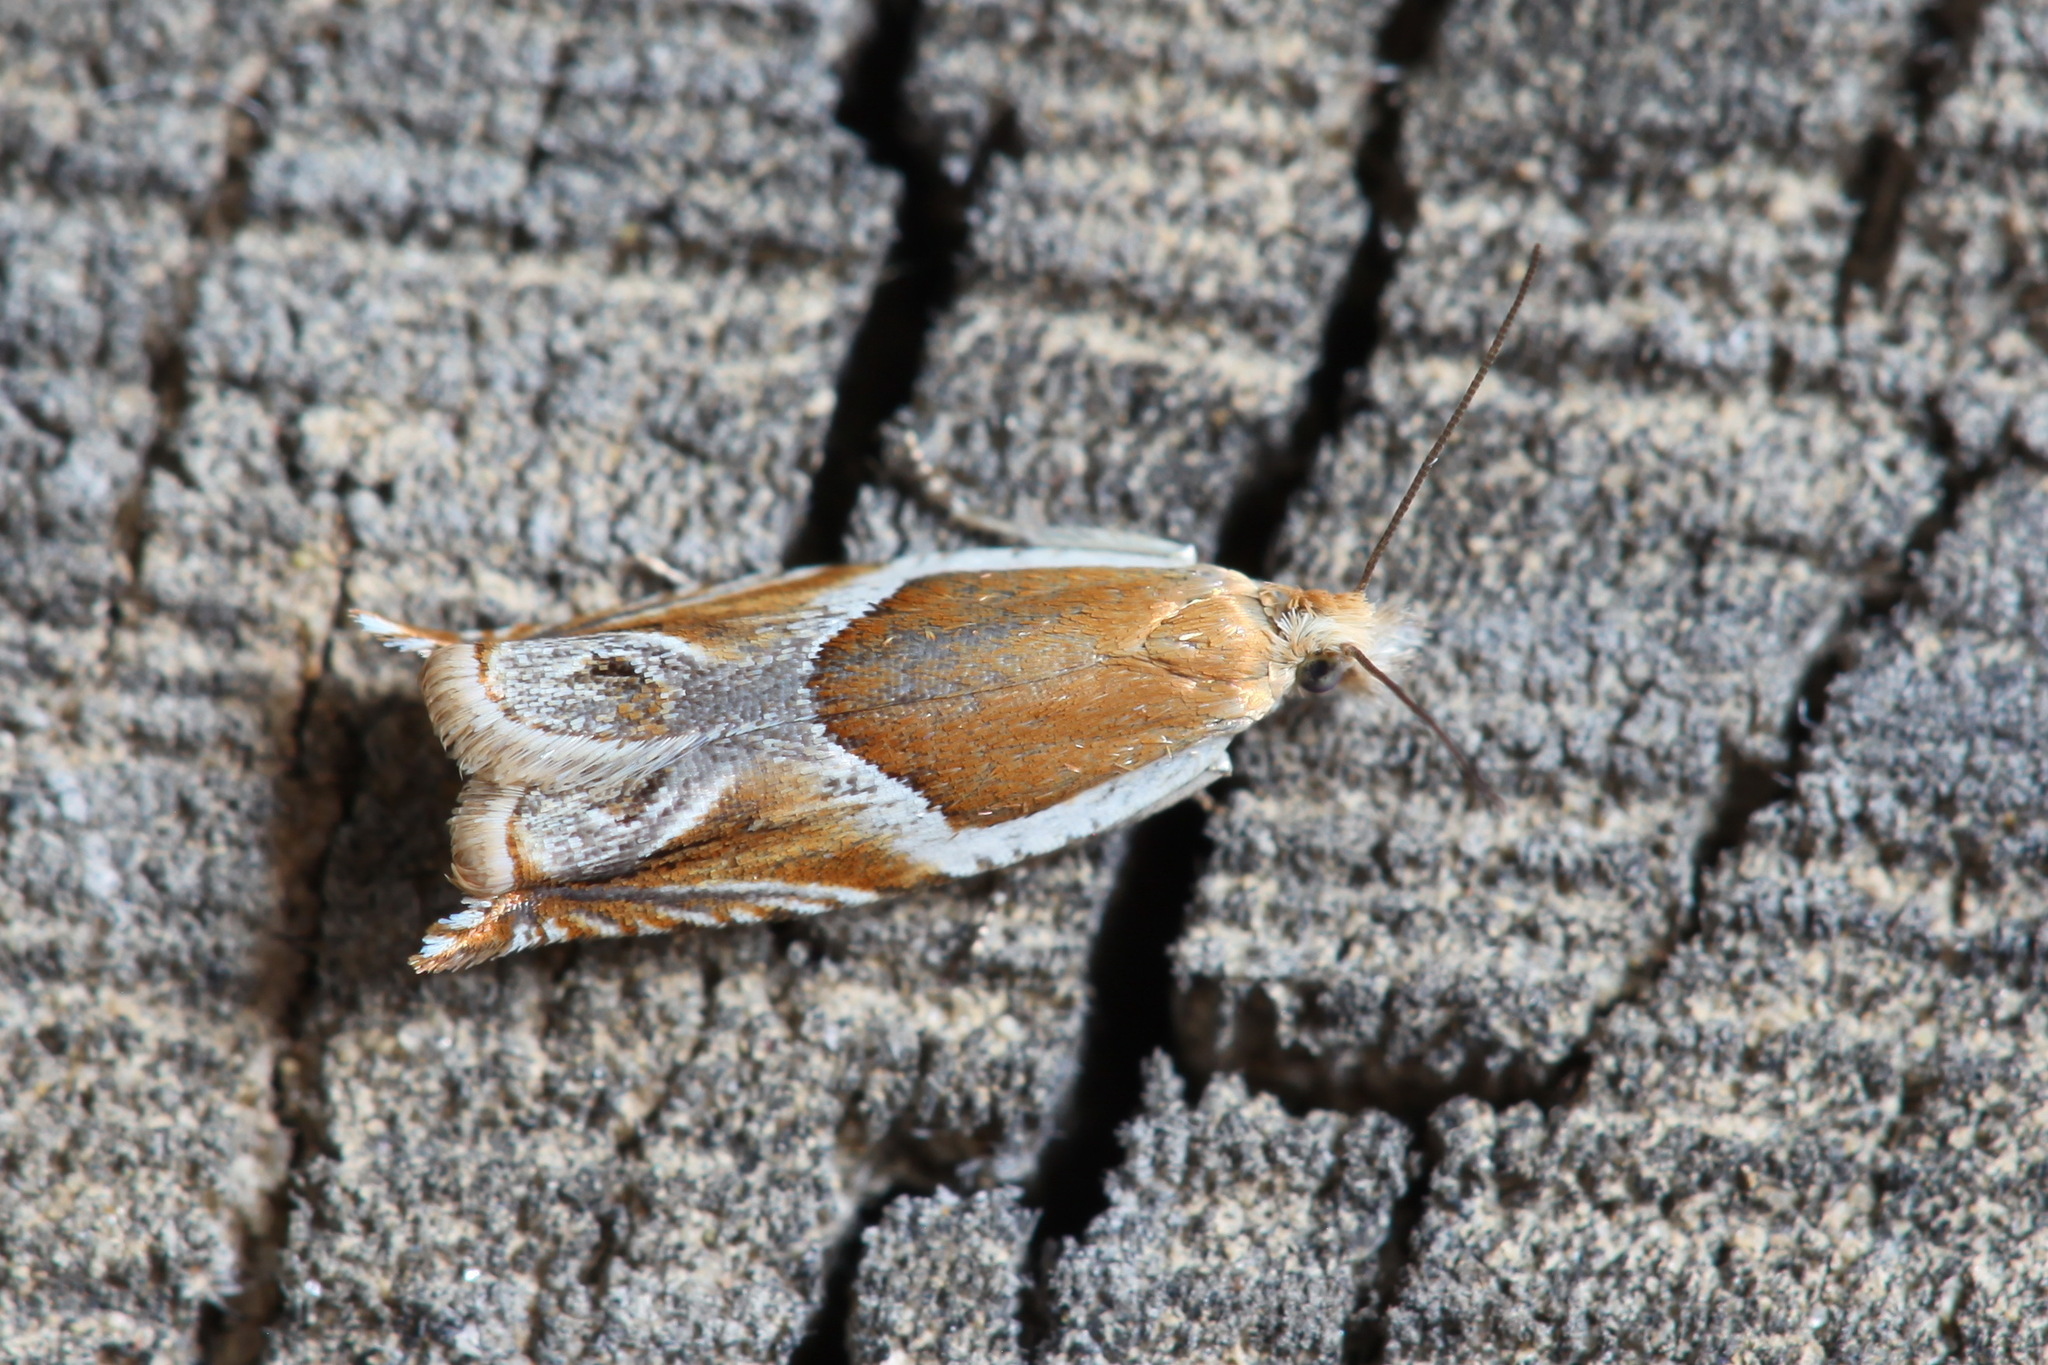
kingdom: Animalia
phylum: Arthropoda
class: Insecta
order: Lepidoptera
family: Tortricidae
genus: Ancylis
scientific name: Ancylis comptana
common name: Little roller
